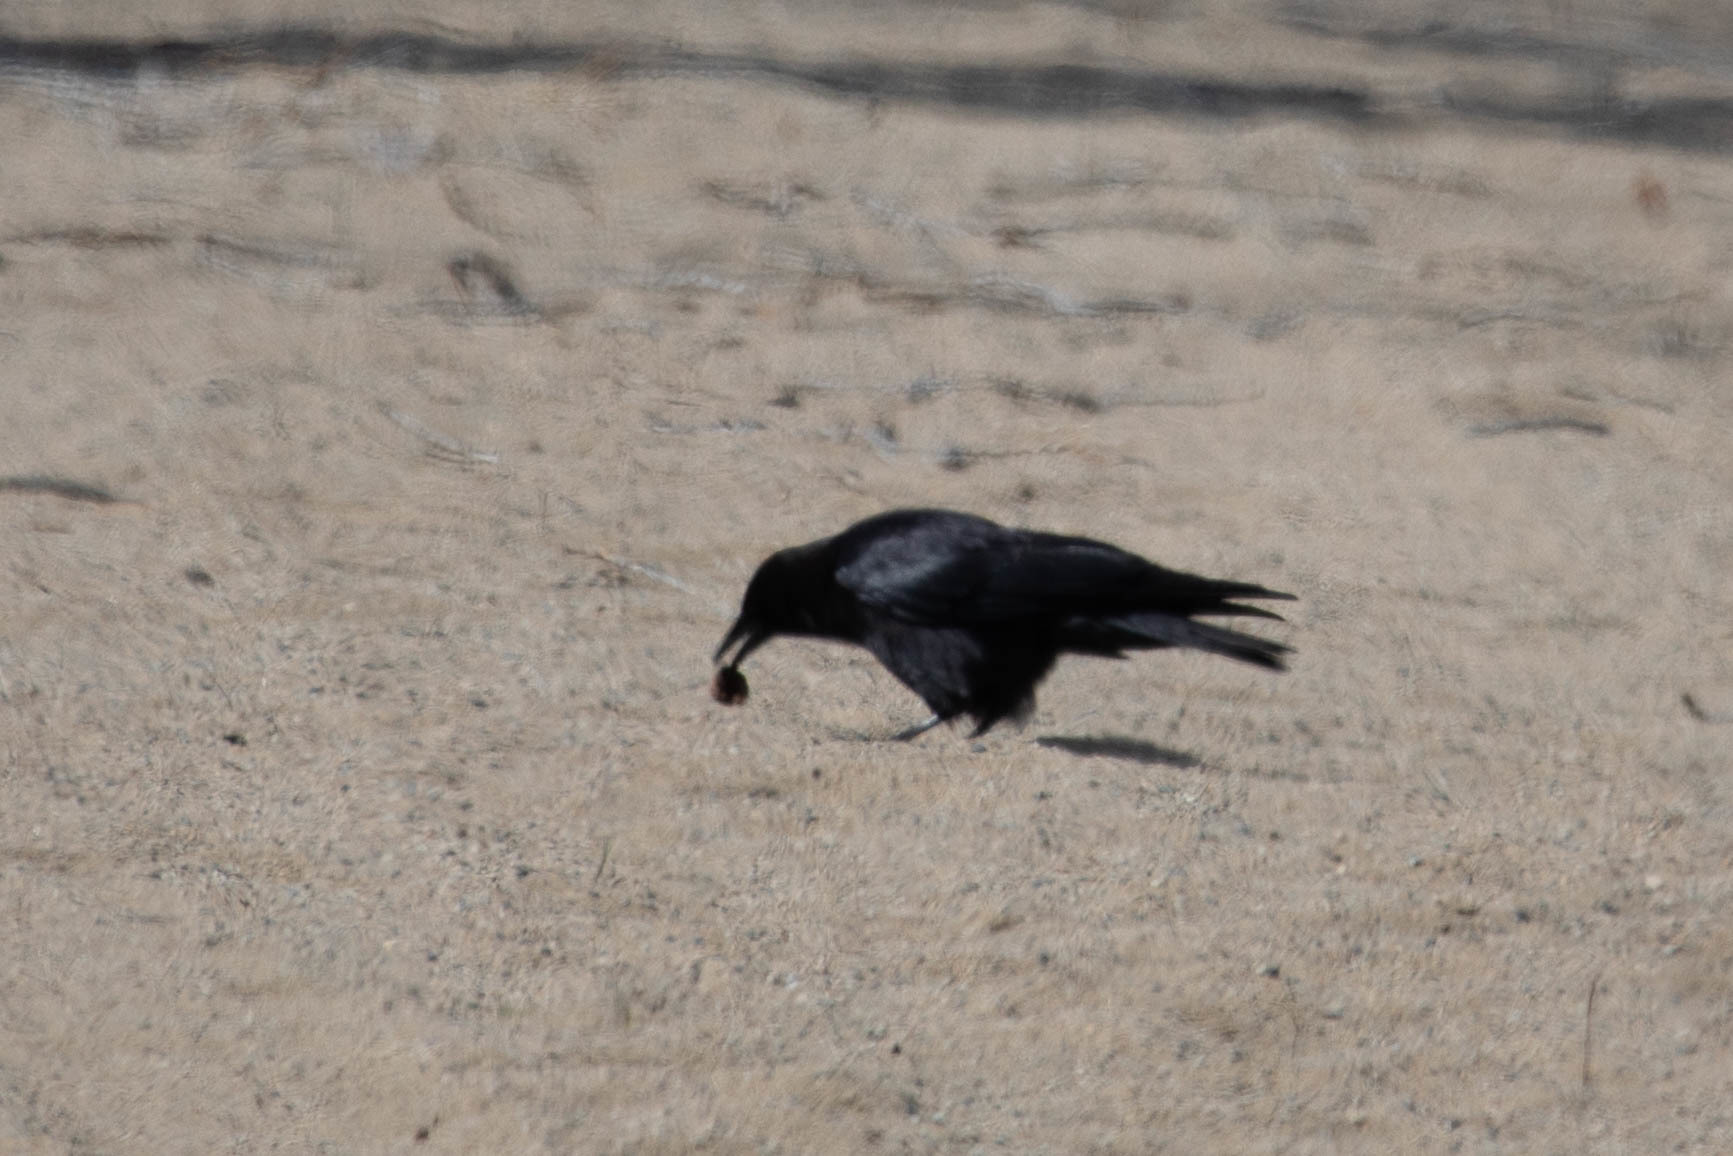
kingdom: Animalia
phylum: Chordata
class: Aves
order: Passeriformes
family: Corvidae
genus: Corvus
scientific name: Corvus brachyrhynchos
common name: American crow
